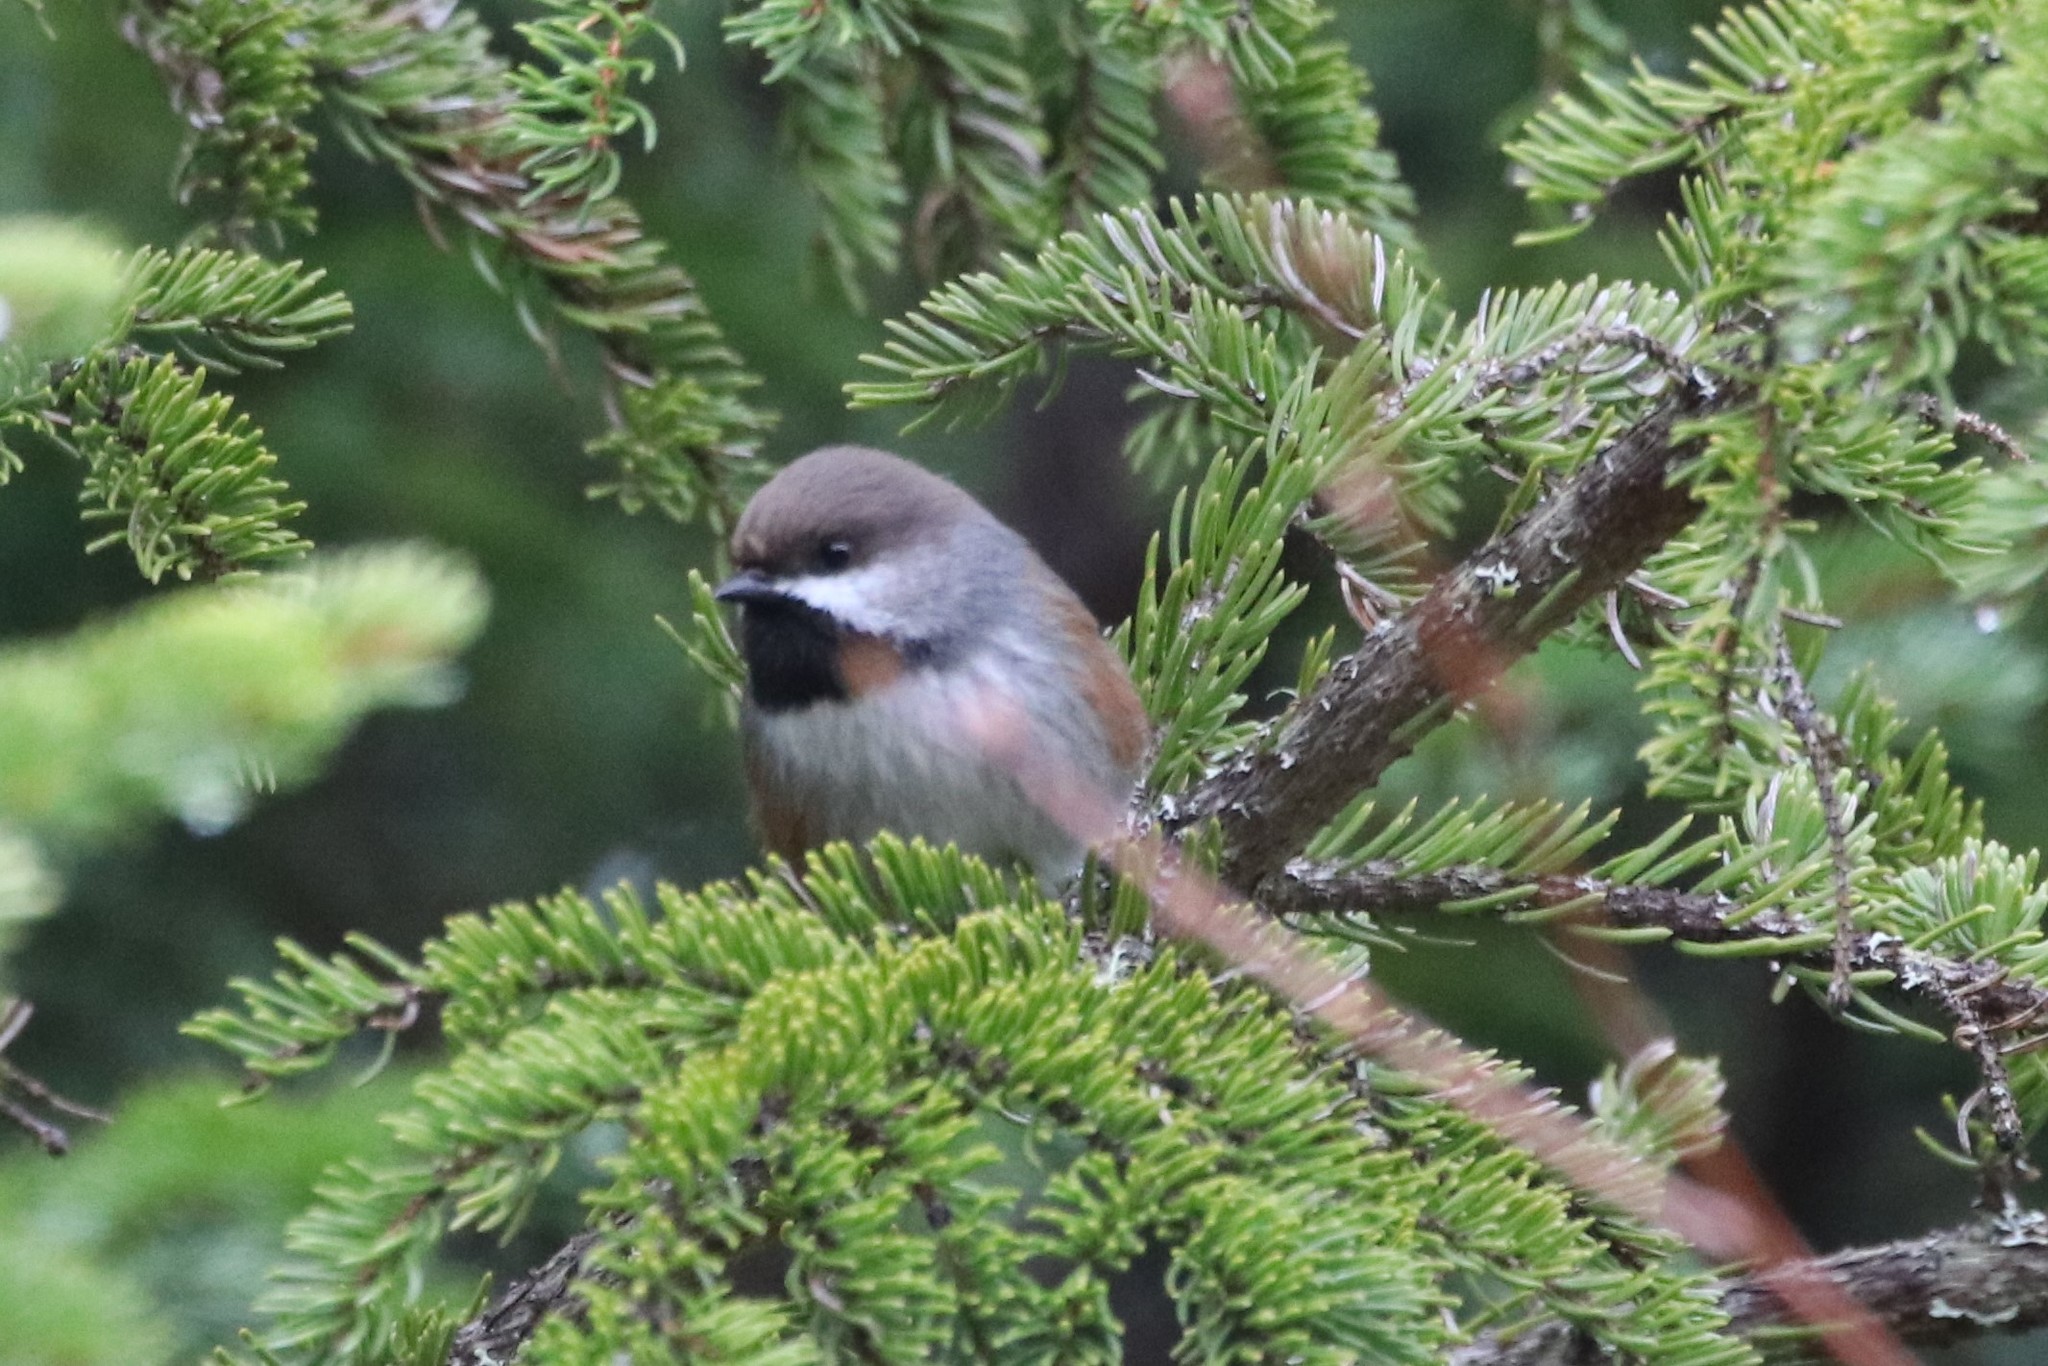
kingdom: Animalia
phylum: Chordata
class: Aves
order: Passeriformes
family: Paridae
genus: Poecile
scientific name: Poecile hudsonicus
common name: Boreal chickadee
